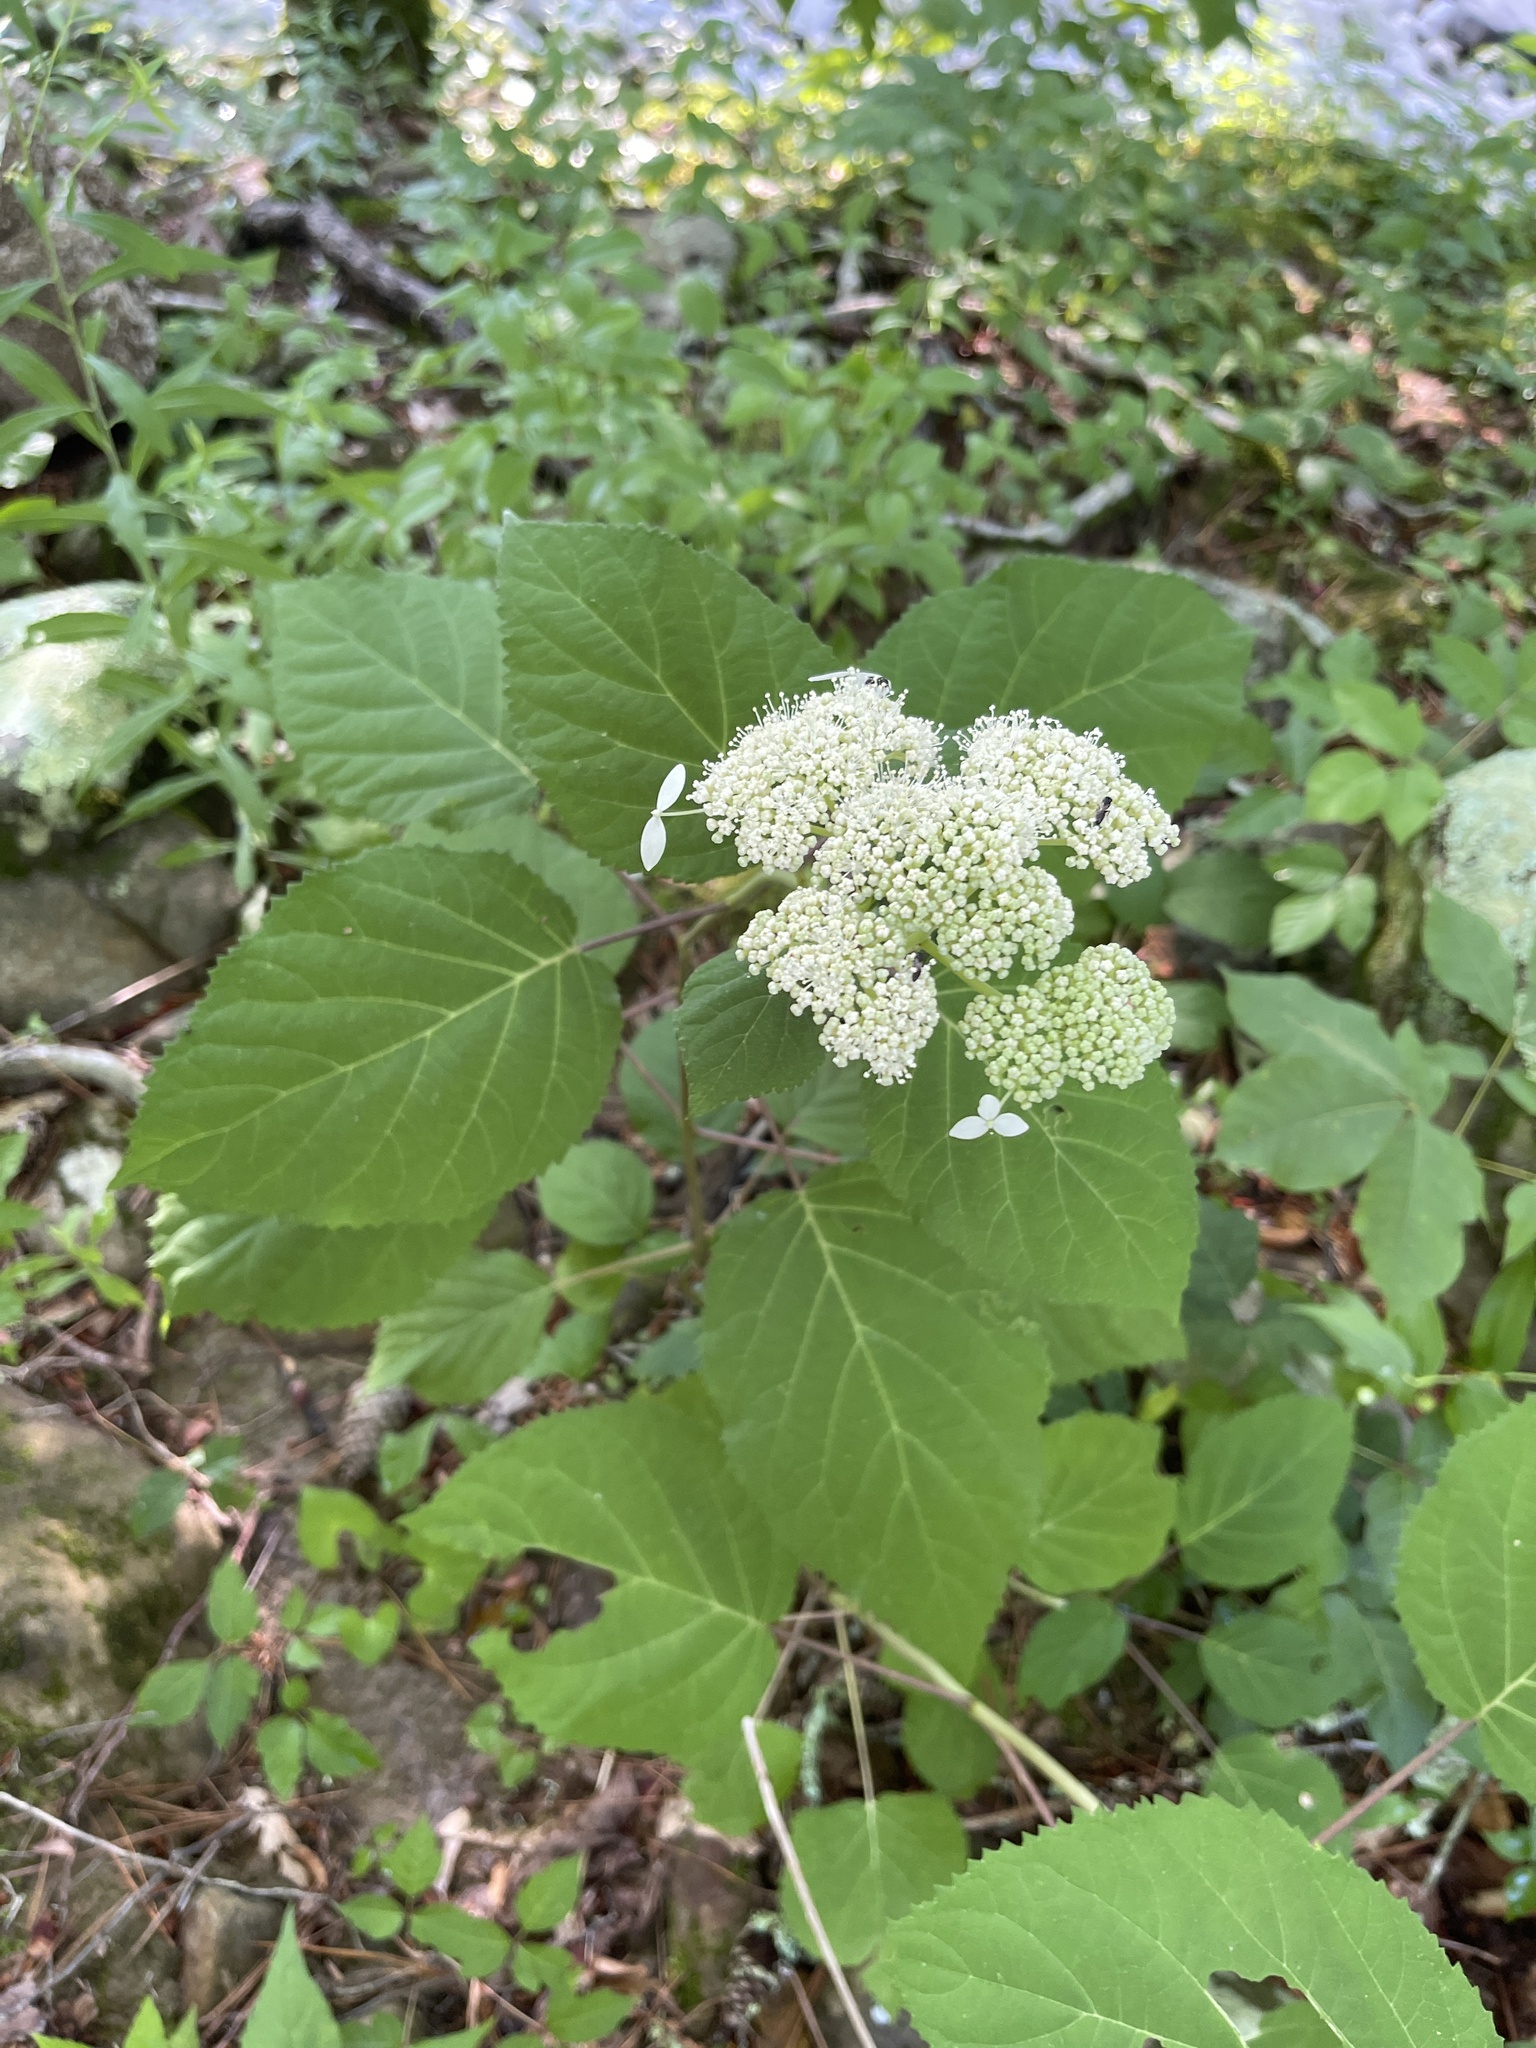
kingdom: Plantae
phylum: Tracheophyta
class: Magnoliopsida
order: Cornales
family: Hydrangeaceae
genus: Hydrangea
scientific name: Hydrangea arborescens
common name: Sevenbark
